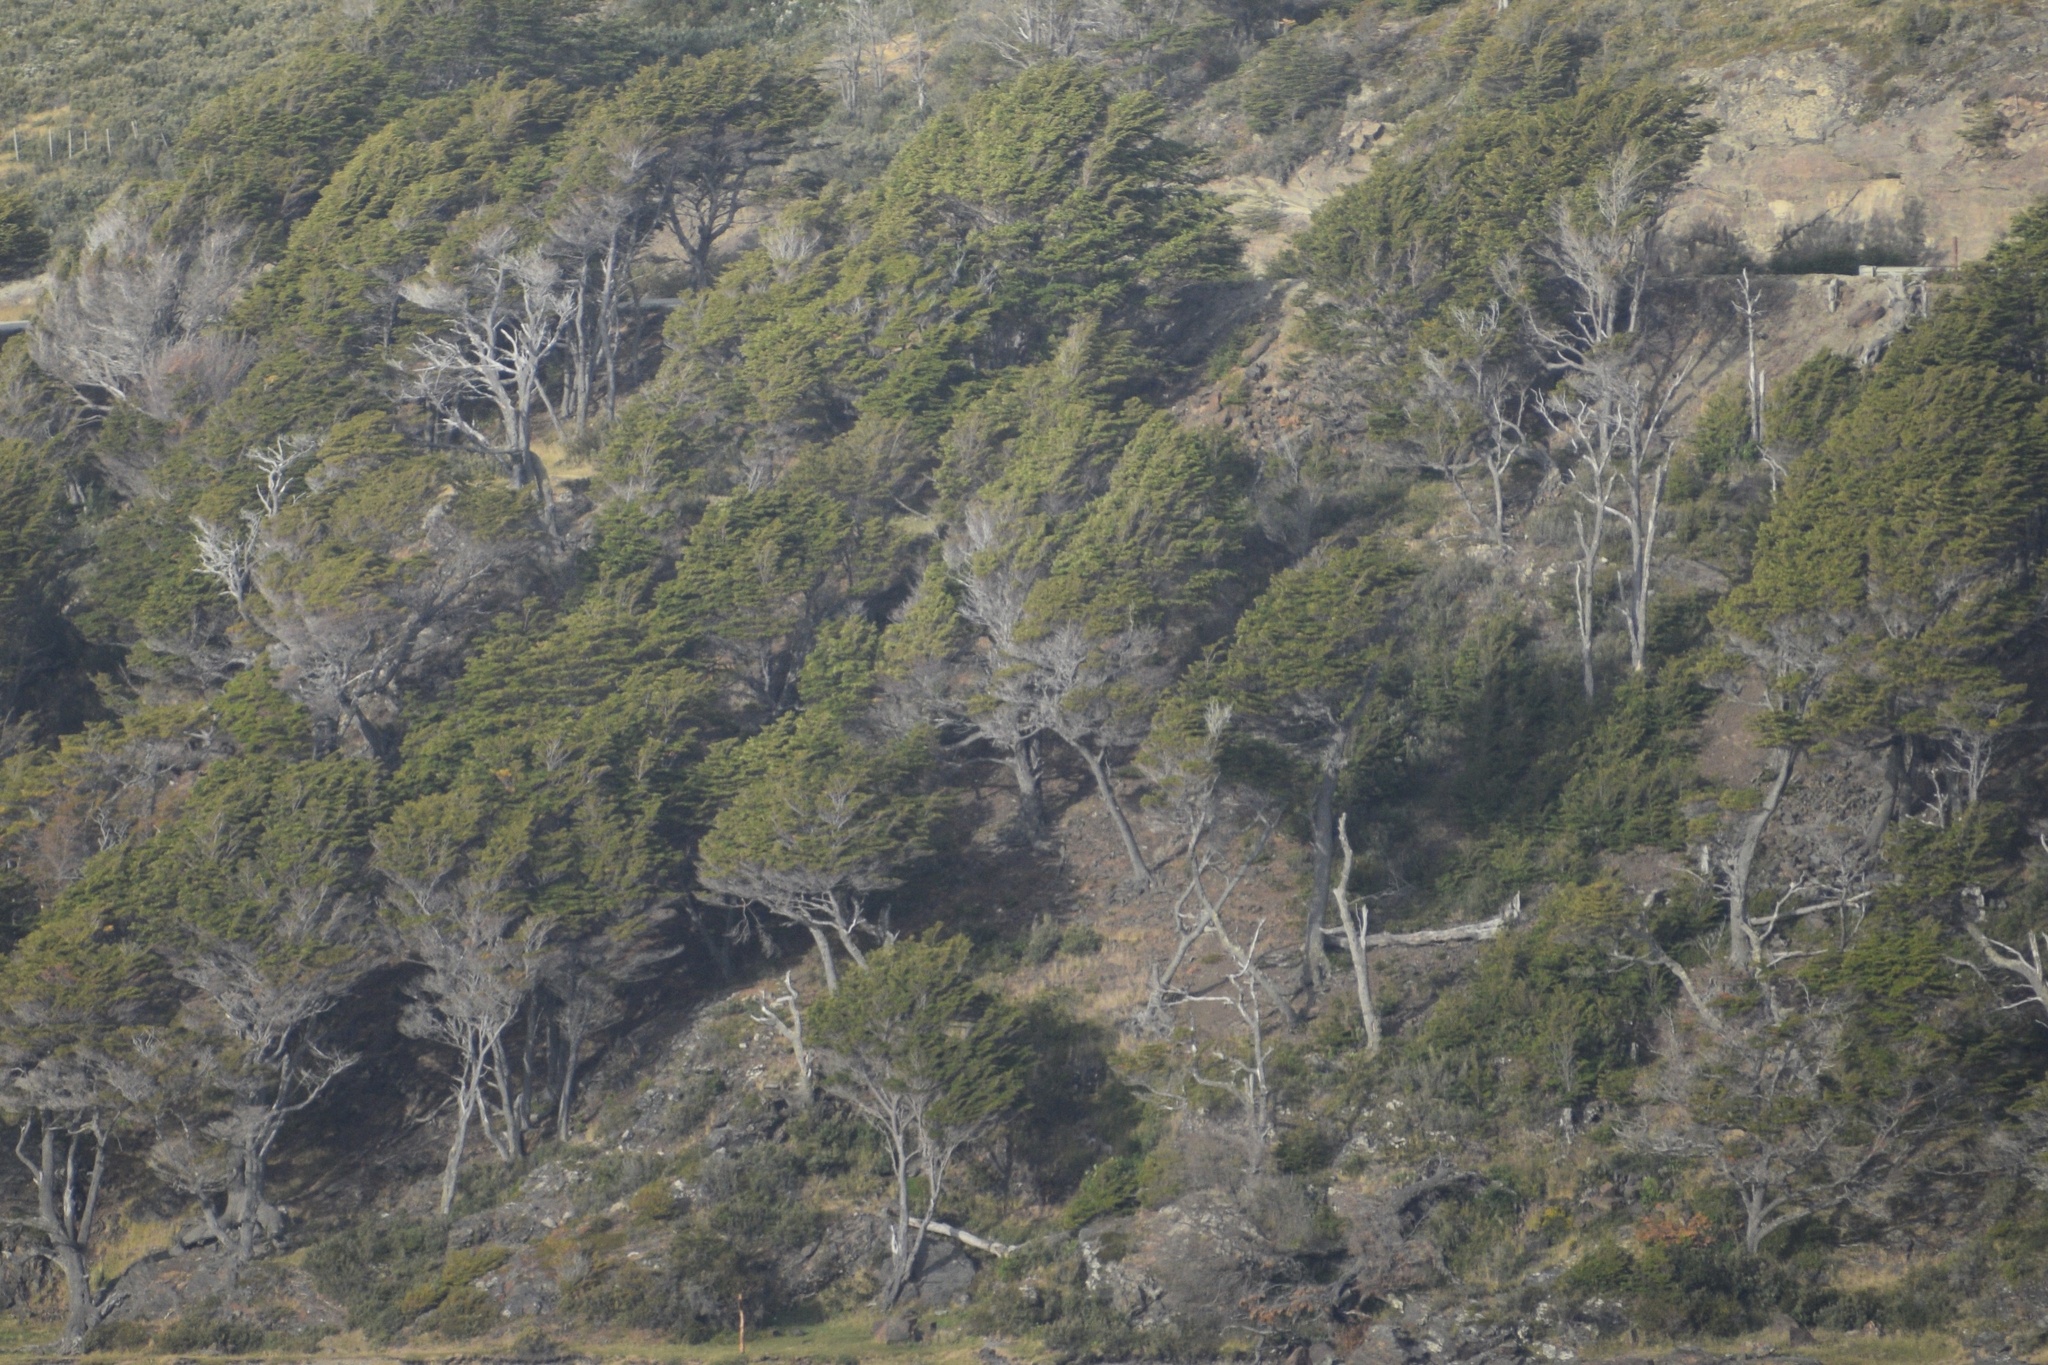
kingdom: Plantae
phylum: Tracheophyta
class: Magnoliopsida
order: Fagales
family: Nothofagaceae
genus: Nothofagus
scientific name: Nothofagus betuloides
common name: Magellan's beech
